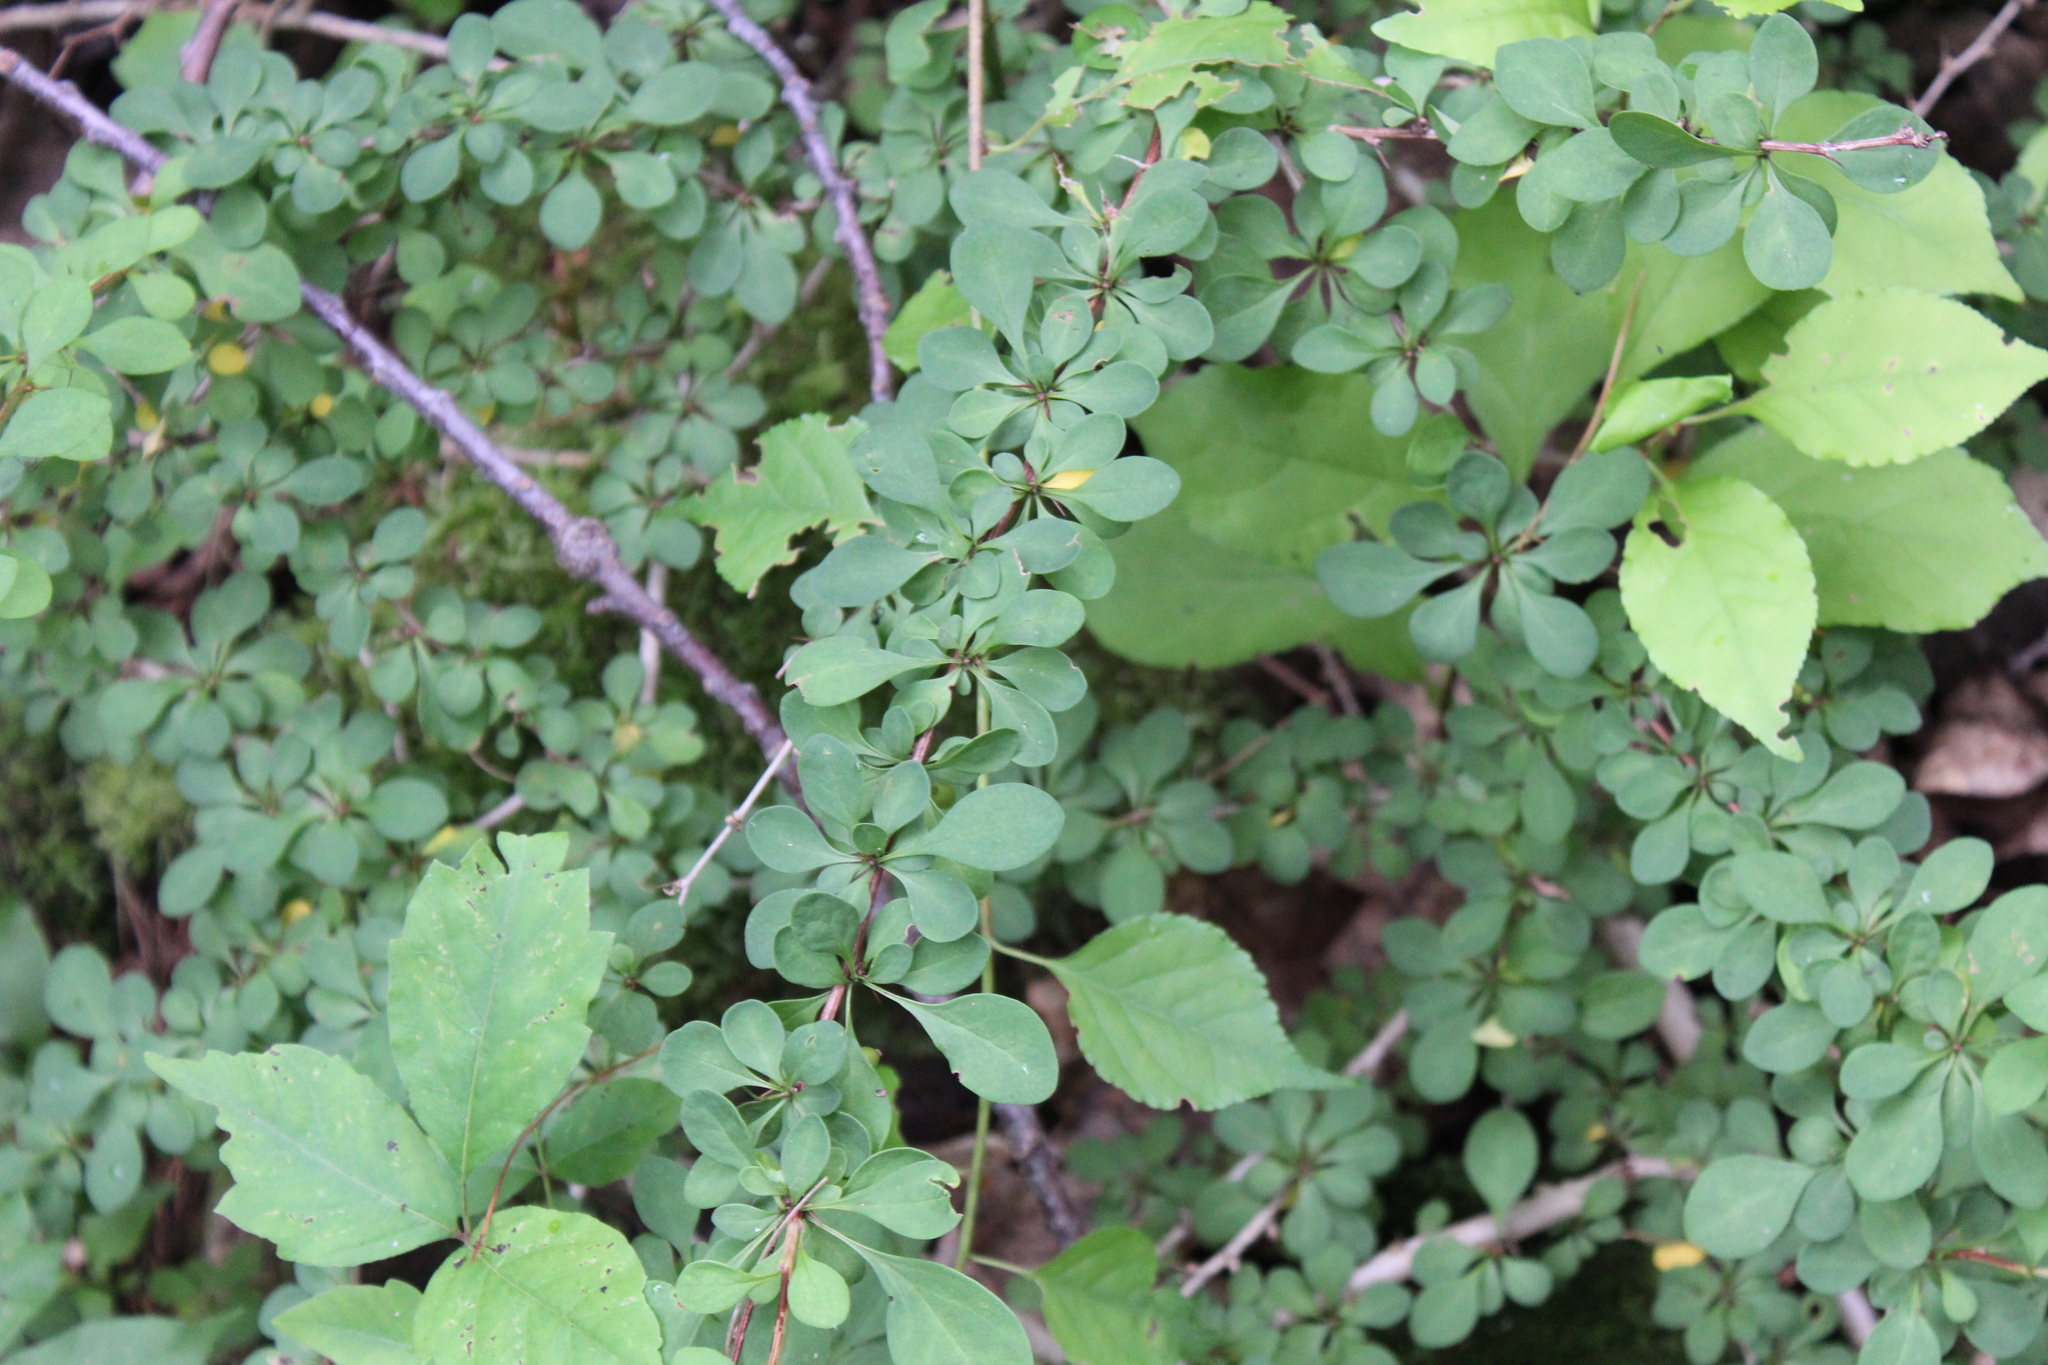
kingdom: Plantae
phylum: Tracheophyta
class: Magnoliopsida
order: Ranunculales
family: Berberidaceae
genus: Berberis
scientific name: Berberis thunbergii
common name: Japanese barberry
